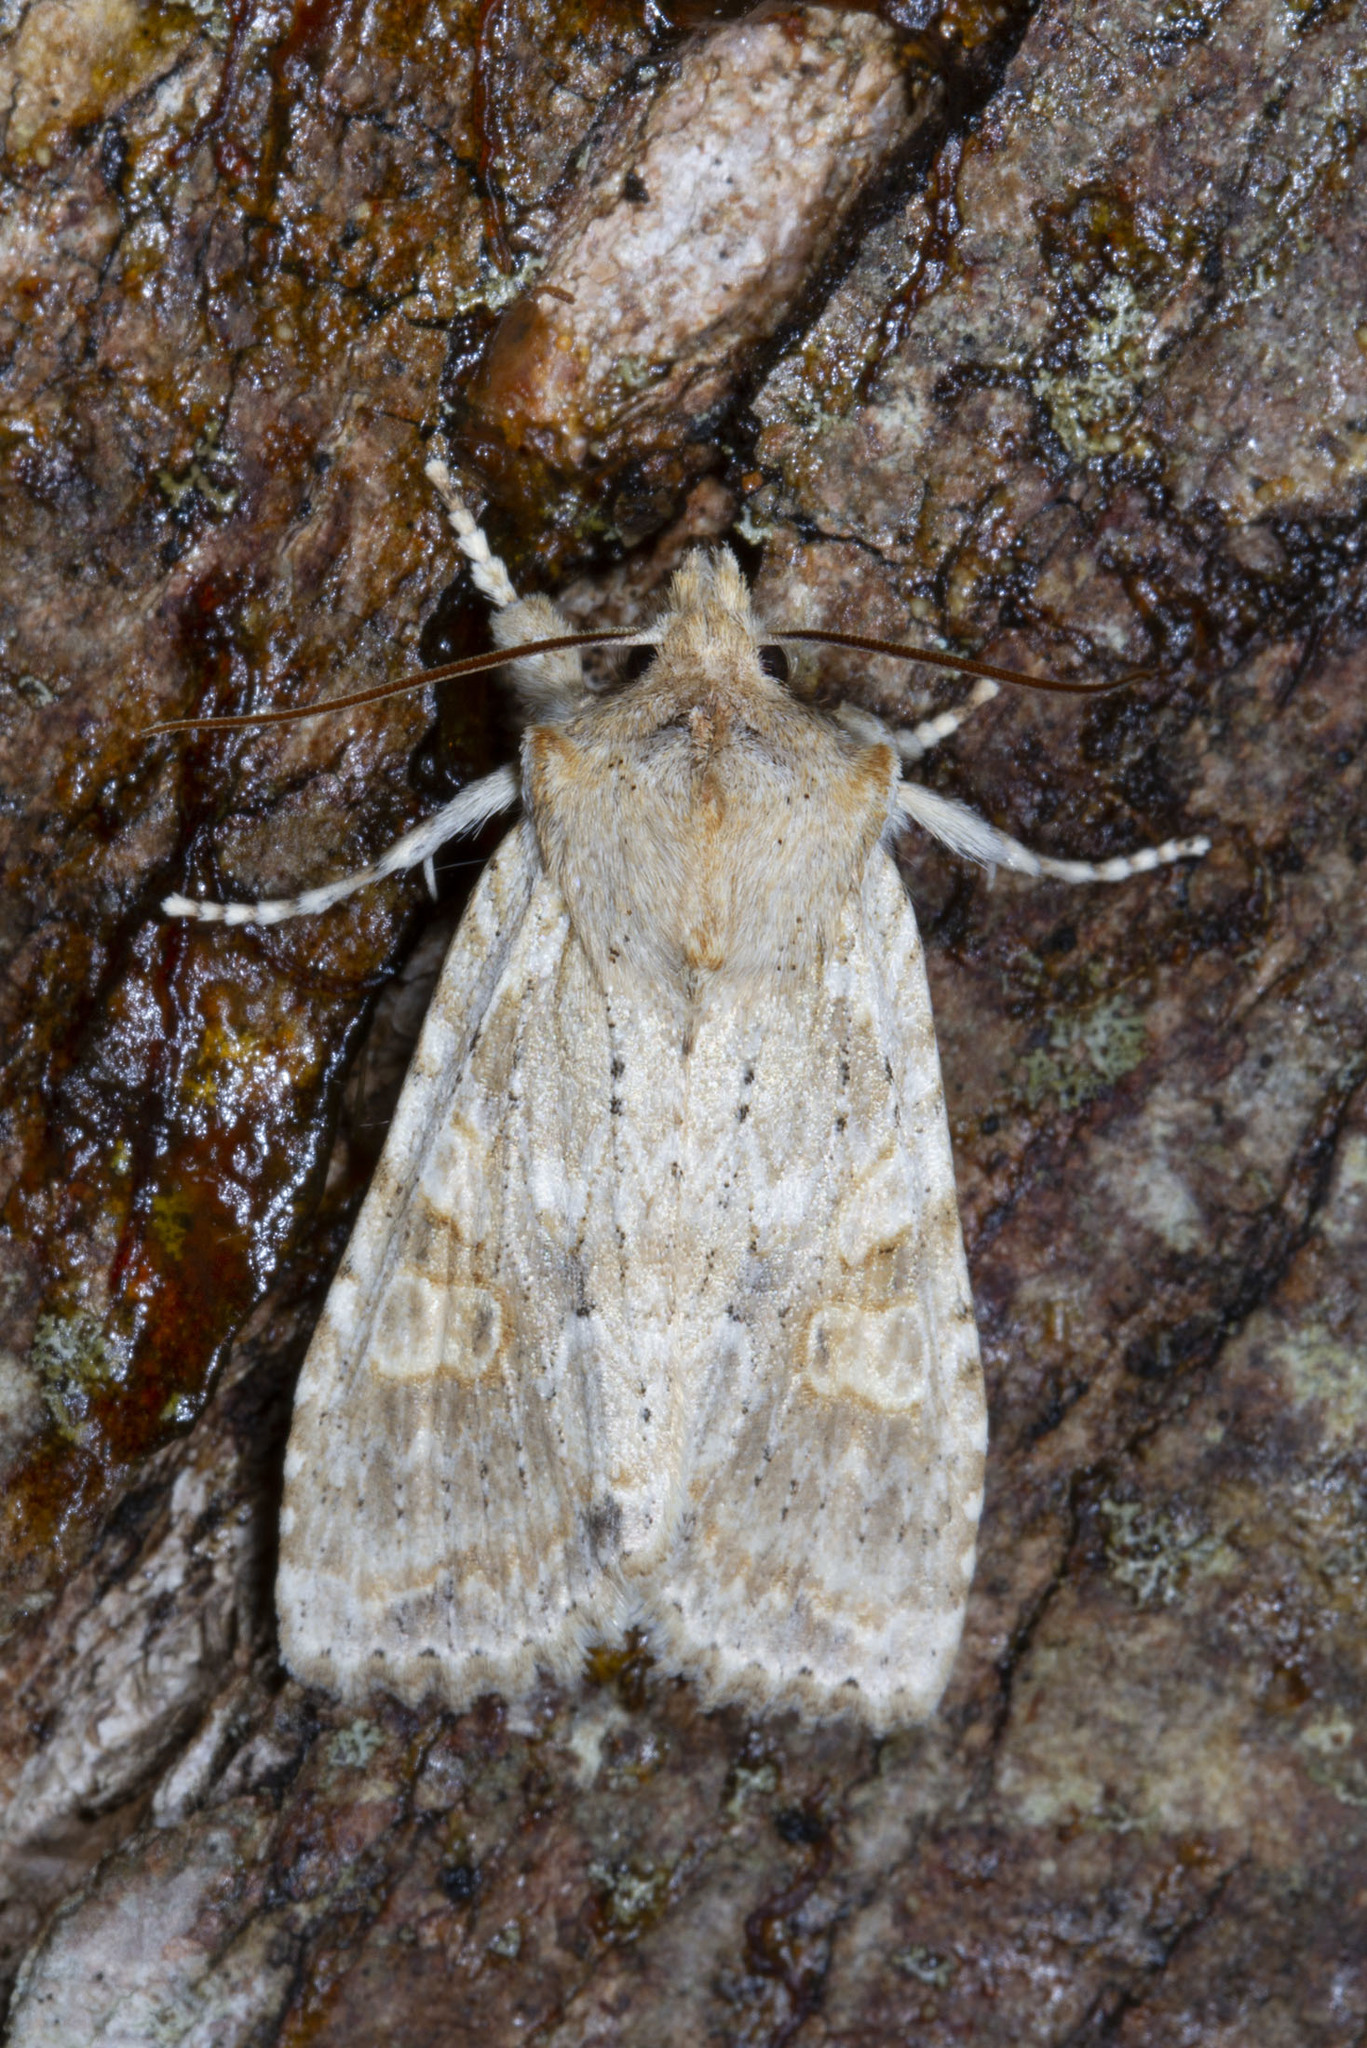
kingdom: Animalia
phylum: Arthropoda
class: Insecta
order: Lepidoptera
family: Noctuidae
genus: Lithophane
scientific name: Lithophane bethunei
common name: Bethune's pinion moth
